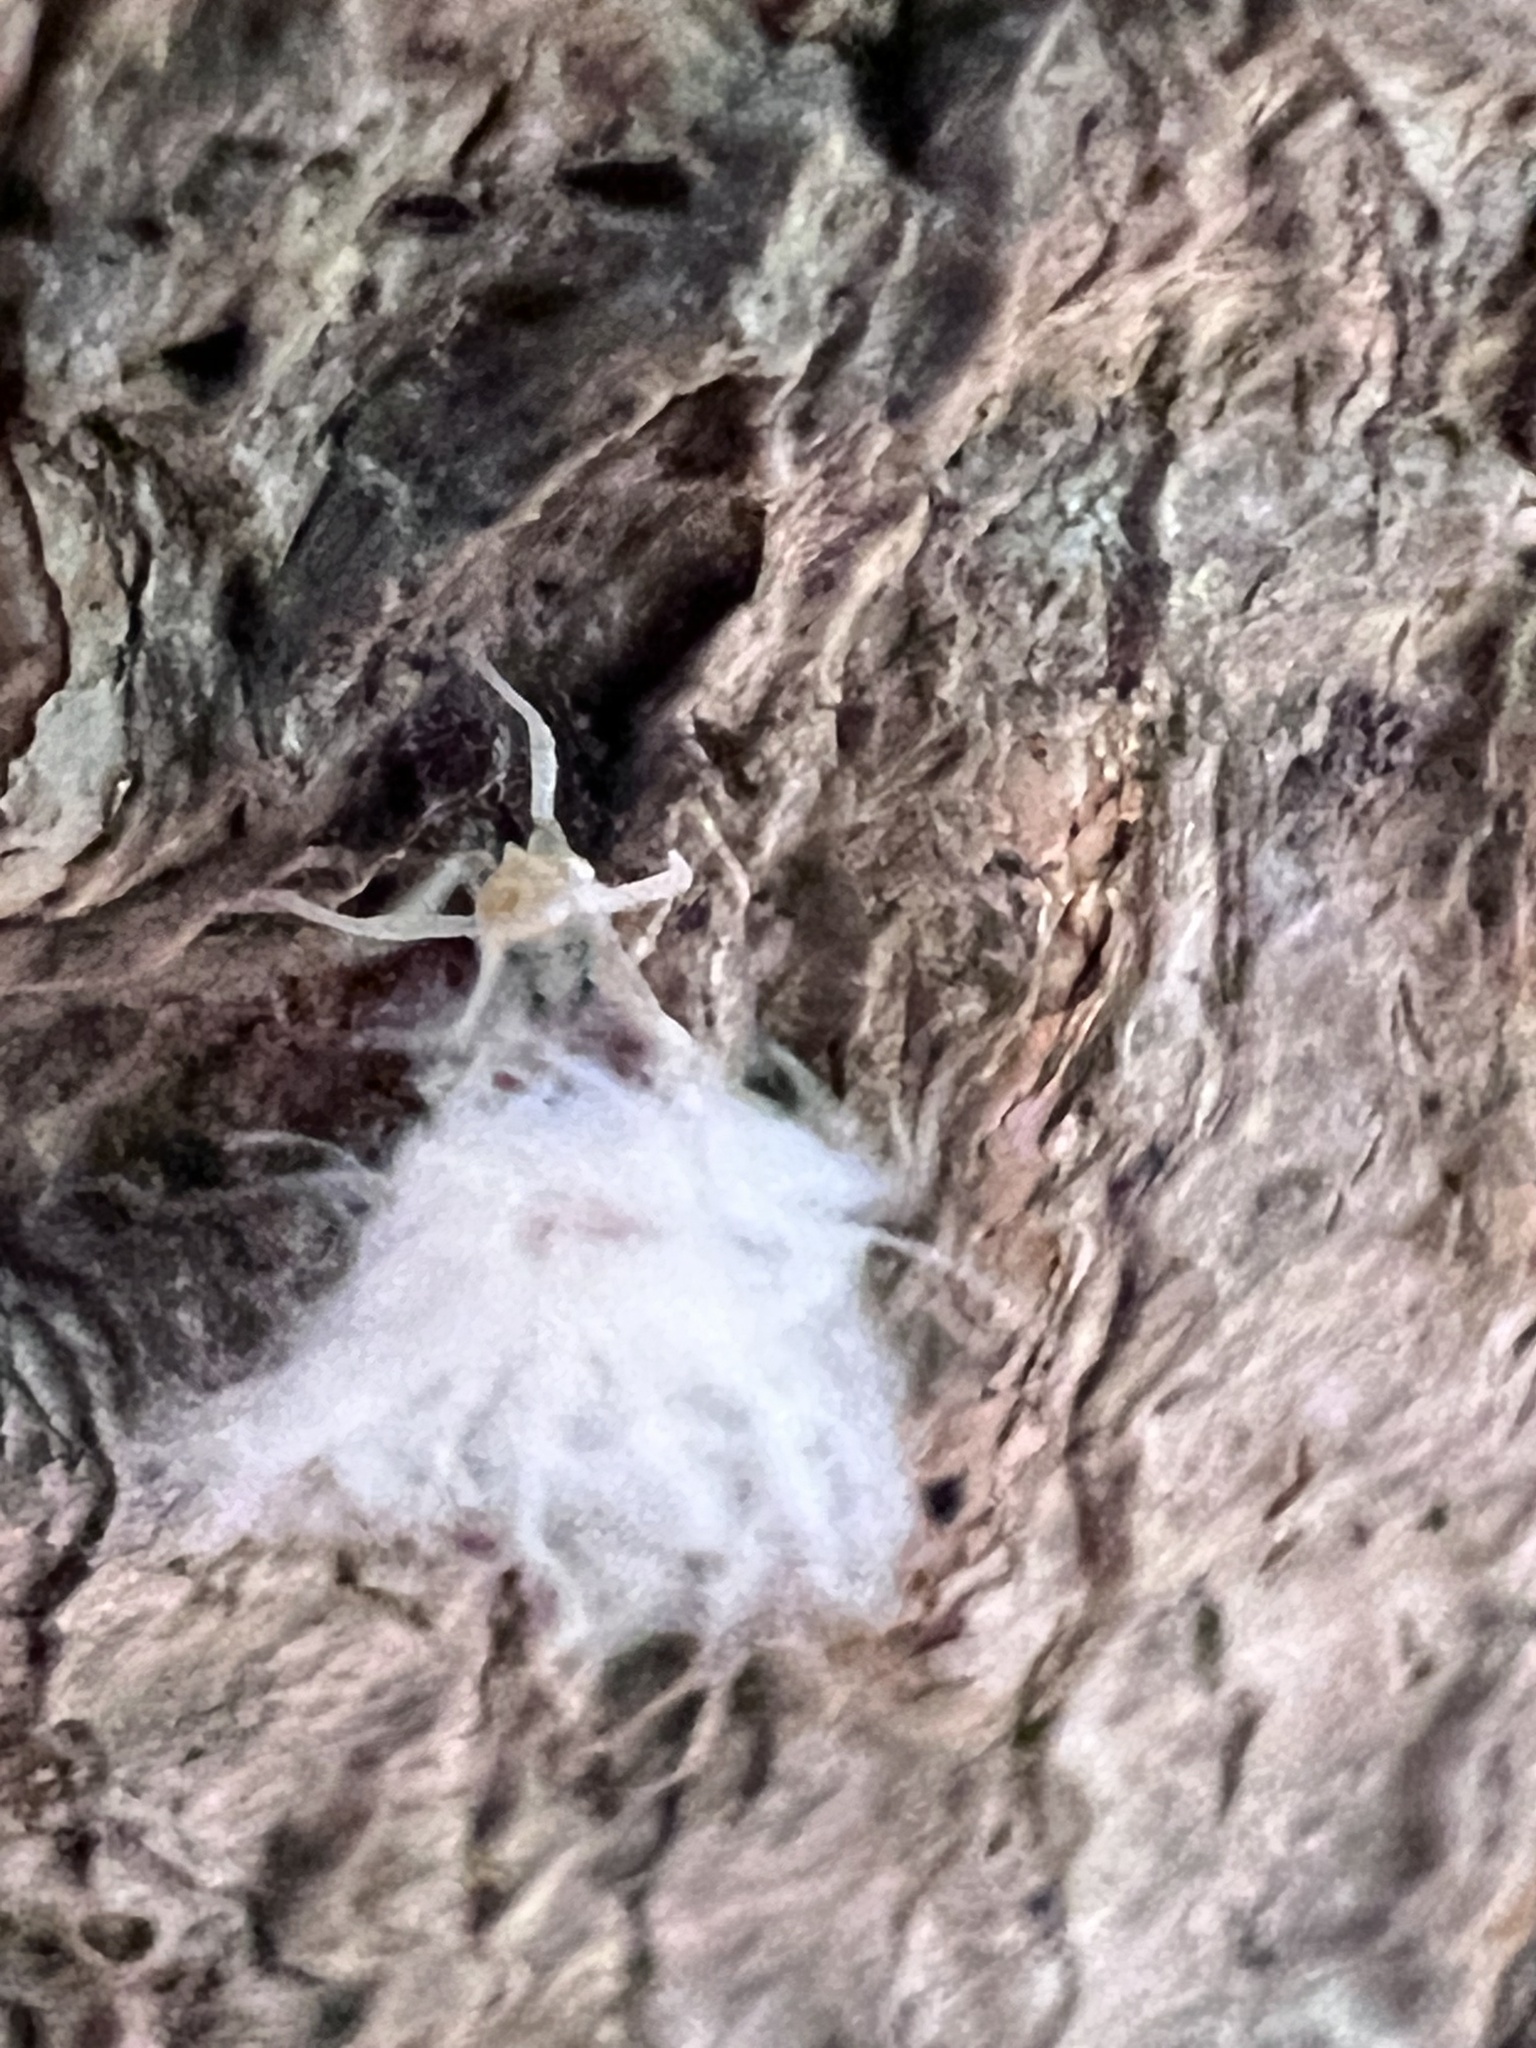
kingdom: Animalia
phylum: Arthropoda
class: Insecta
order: Hemiptera
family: Aphididae
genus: Grylloprociphilus
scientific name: Grylloprociphilus imbricator
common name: Beech blight aphid
